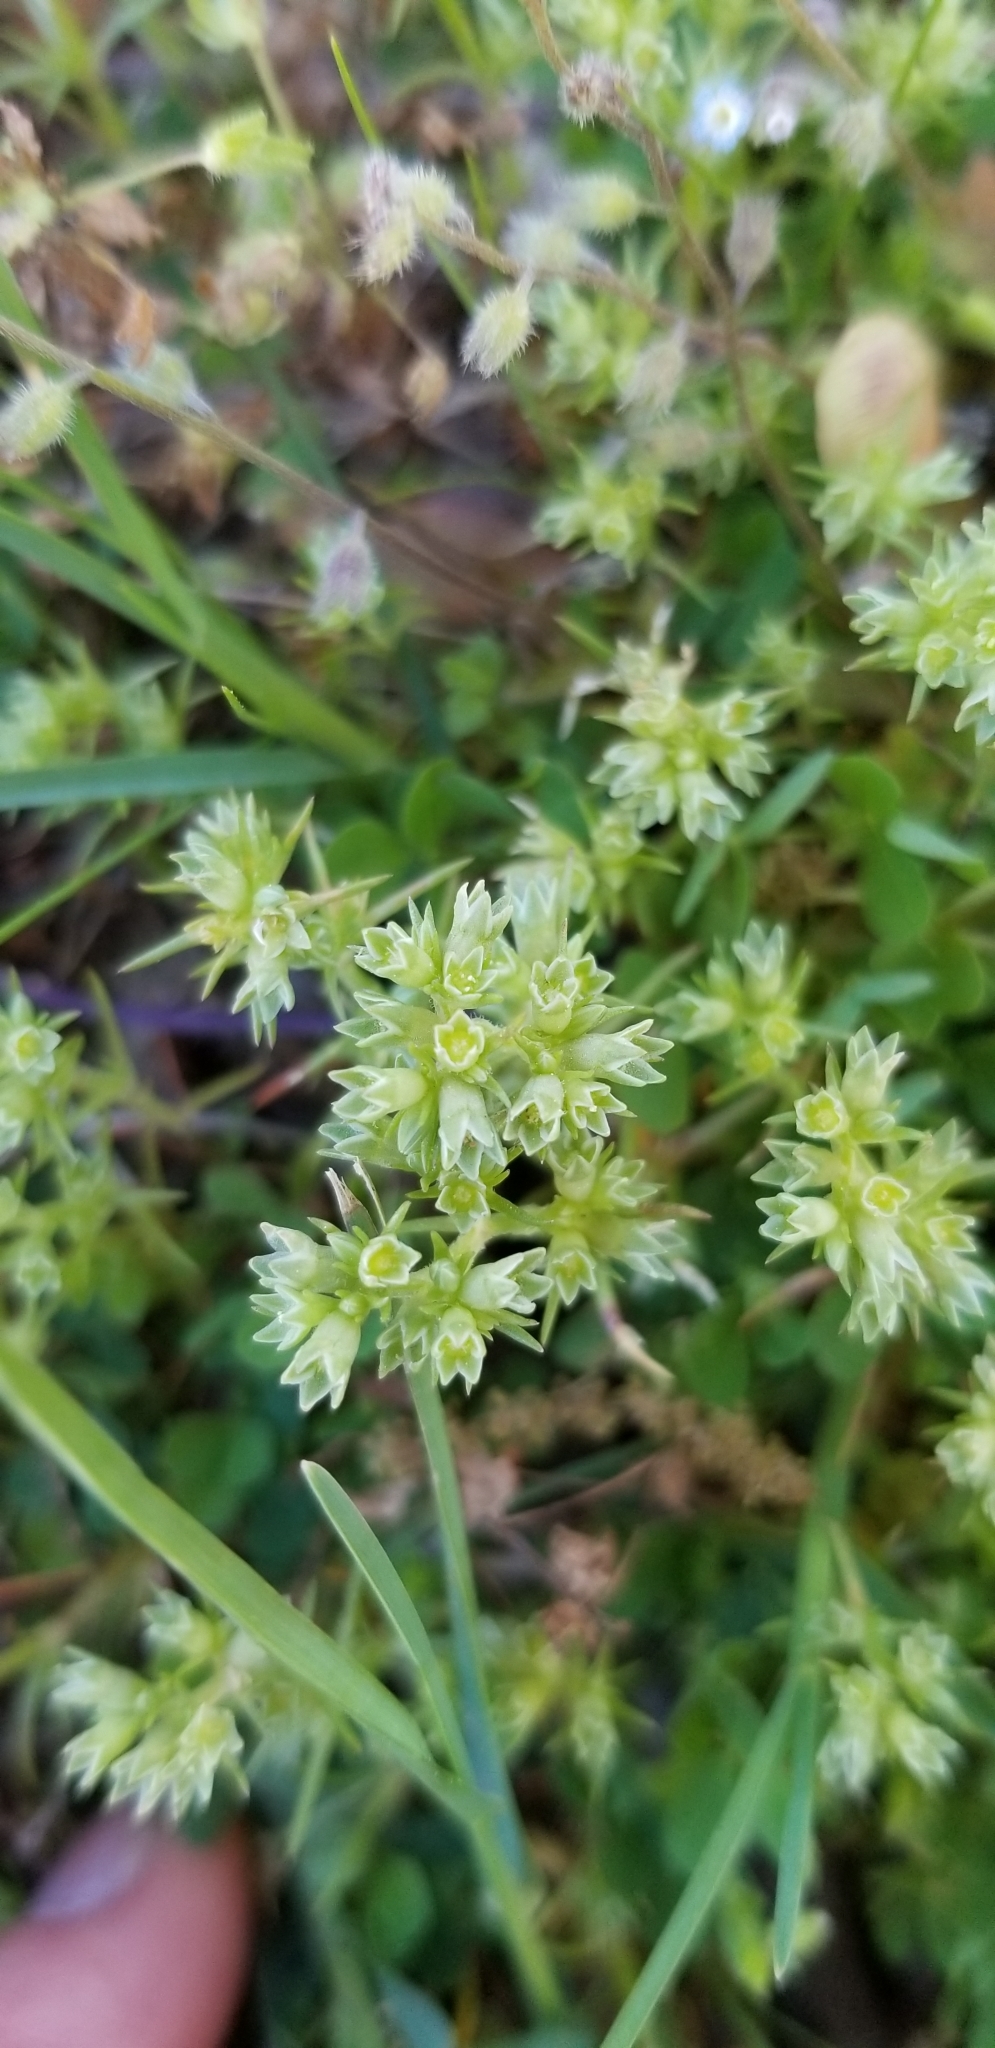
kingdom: Plantae
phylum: Tracheophyta
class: Magnoliopsida
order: Caryophyllales
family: Caryophyllaceae
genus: Scleranthus
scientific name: Scleranthus annuus
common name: Annual knawel
